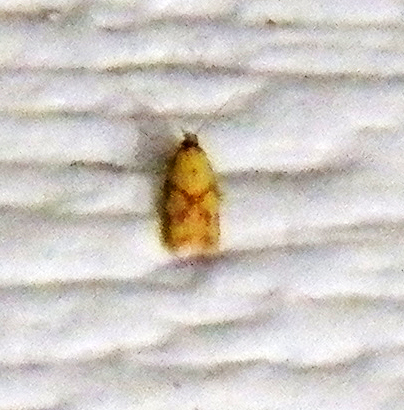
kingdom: Animalia
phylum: Arthropoda
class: Insecta
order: Lepidoptera
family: Tortricidae
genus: Sparganothis
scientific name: Sparganothis sulfureana
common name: Sparganothis fruitworm moth
